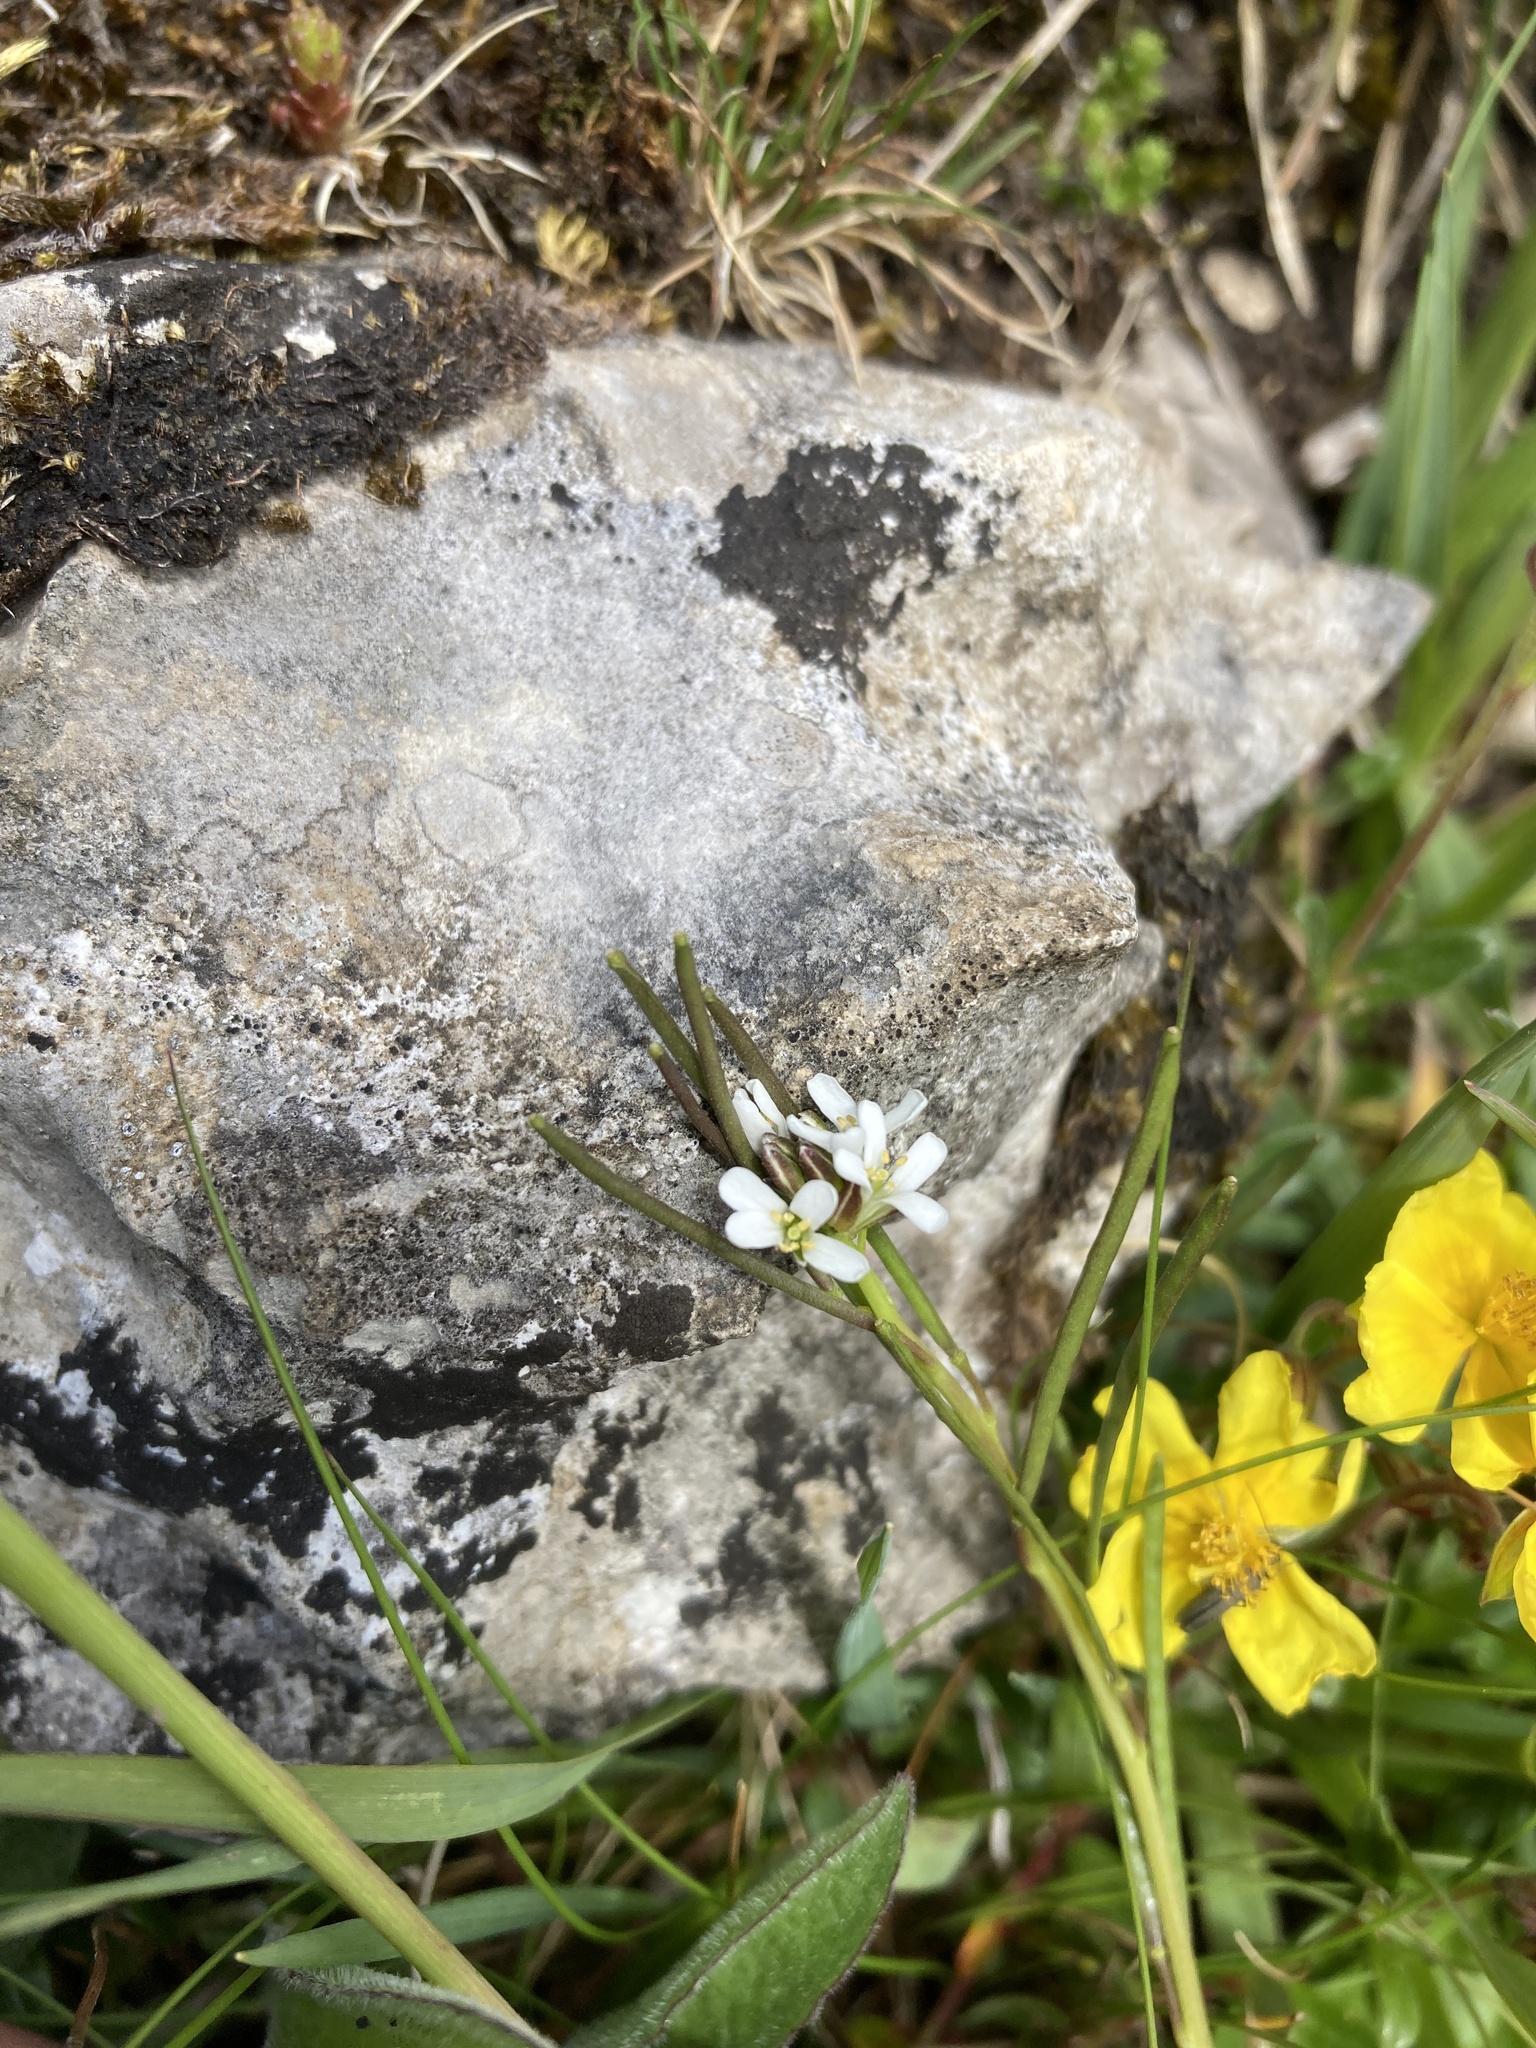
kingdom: Plantae
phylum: Tracheophyta
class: Magnoliopsida
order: Brassicales
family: Brassicaceae
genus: Arabis
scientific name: Arabis hirsuta
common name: Hairy rock-cress
